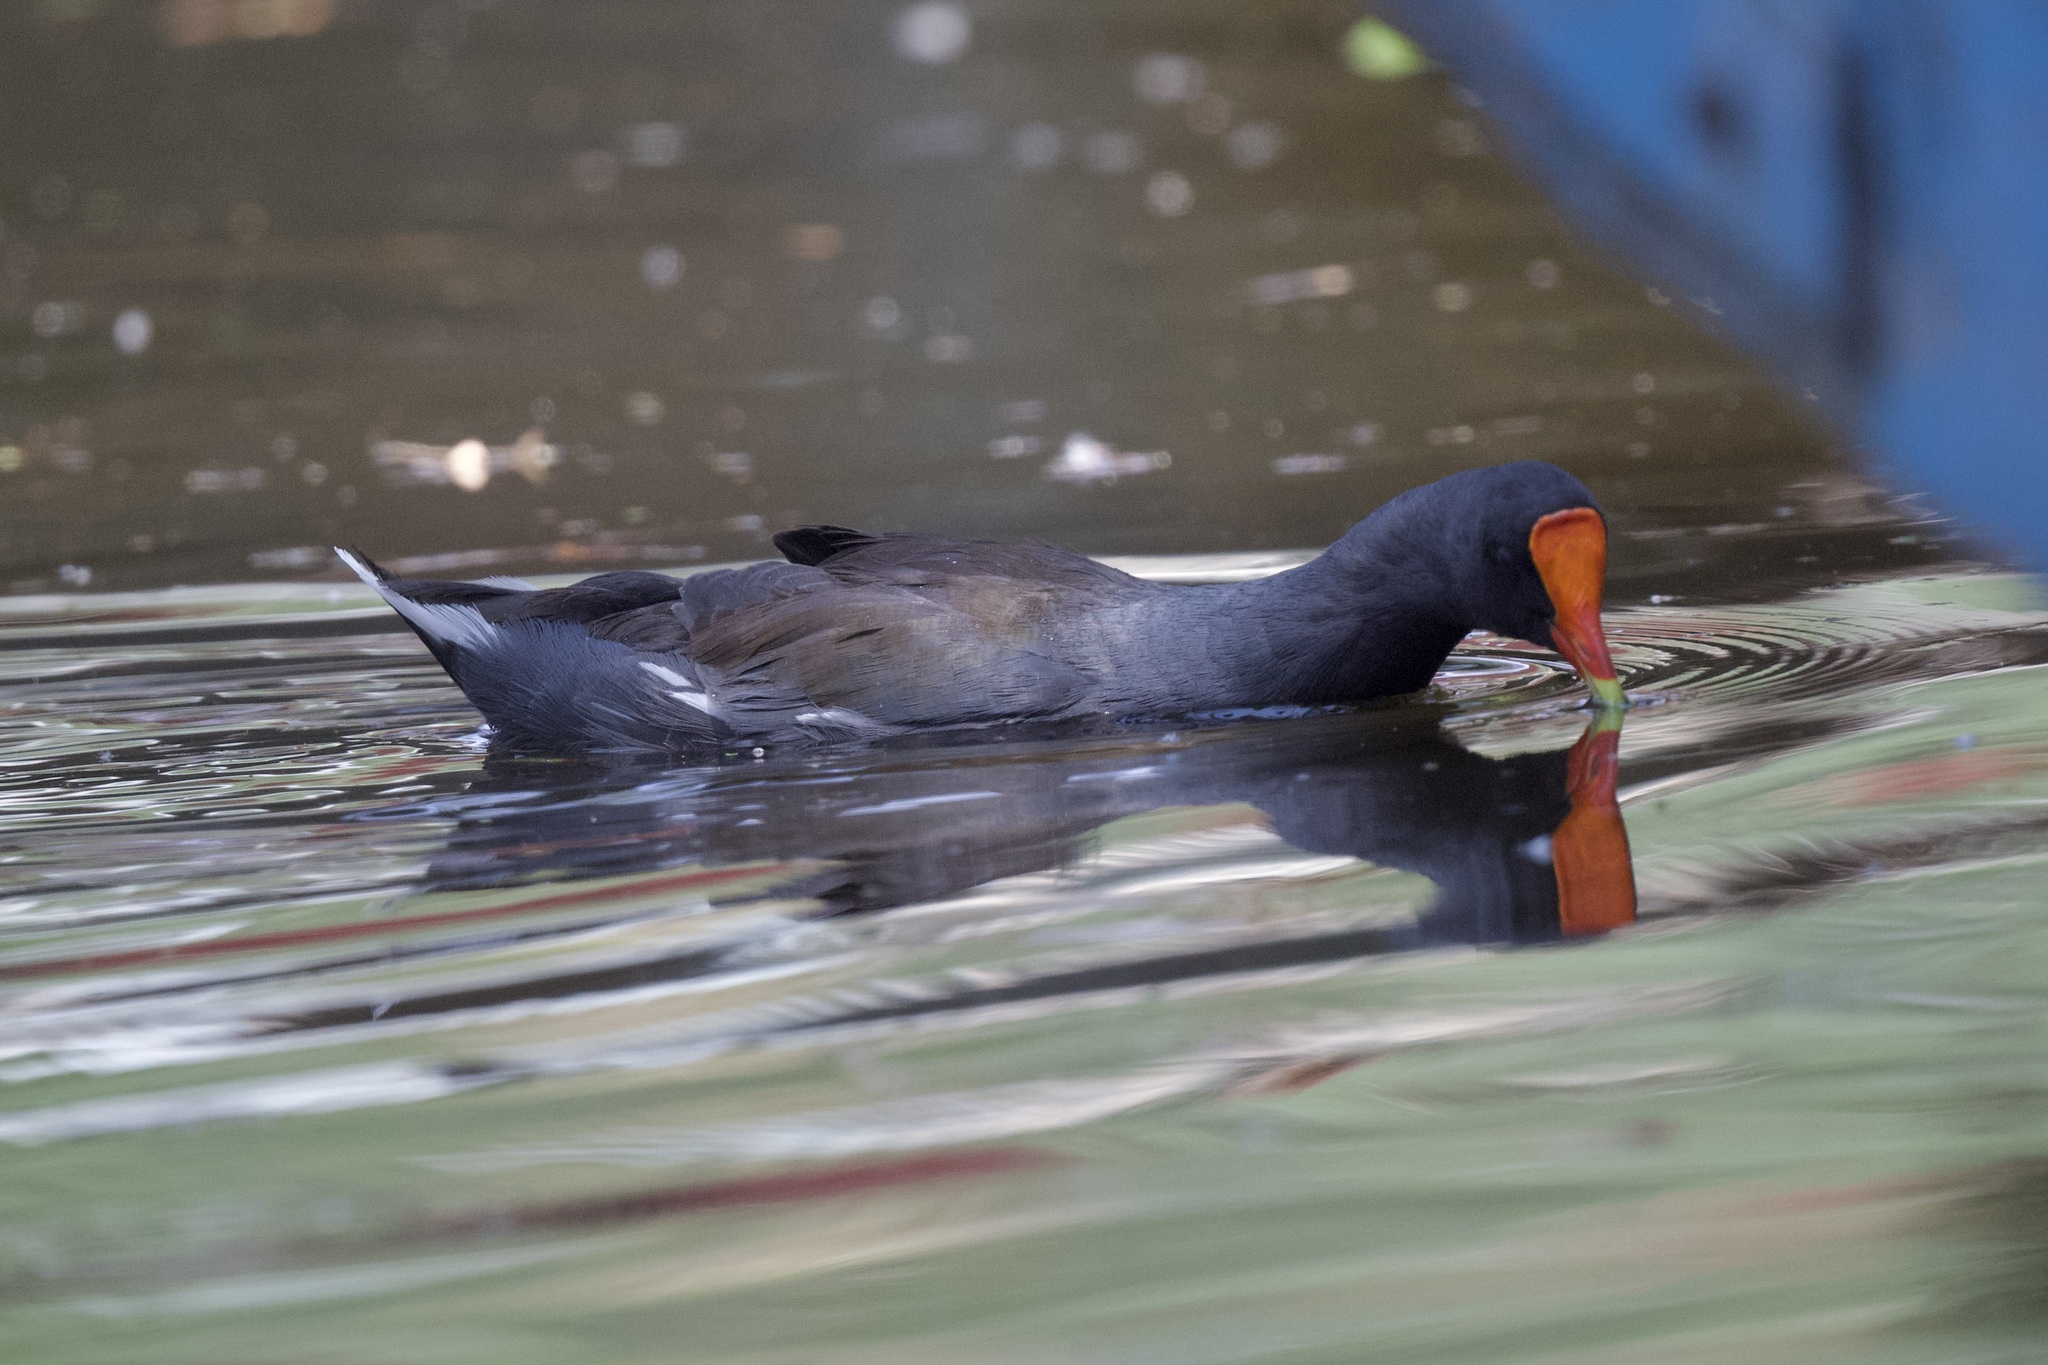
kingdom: Animalia
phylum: Chordata
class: Aves
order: Gruiformes
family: Rallidae
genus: Gallinula
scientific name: Gallinula chloropus
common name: Common moorhen
